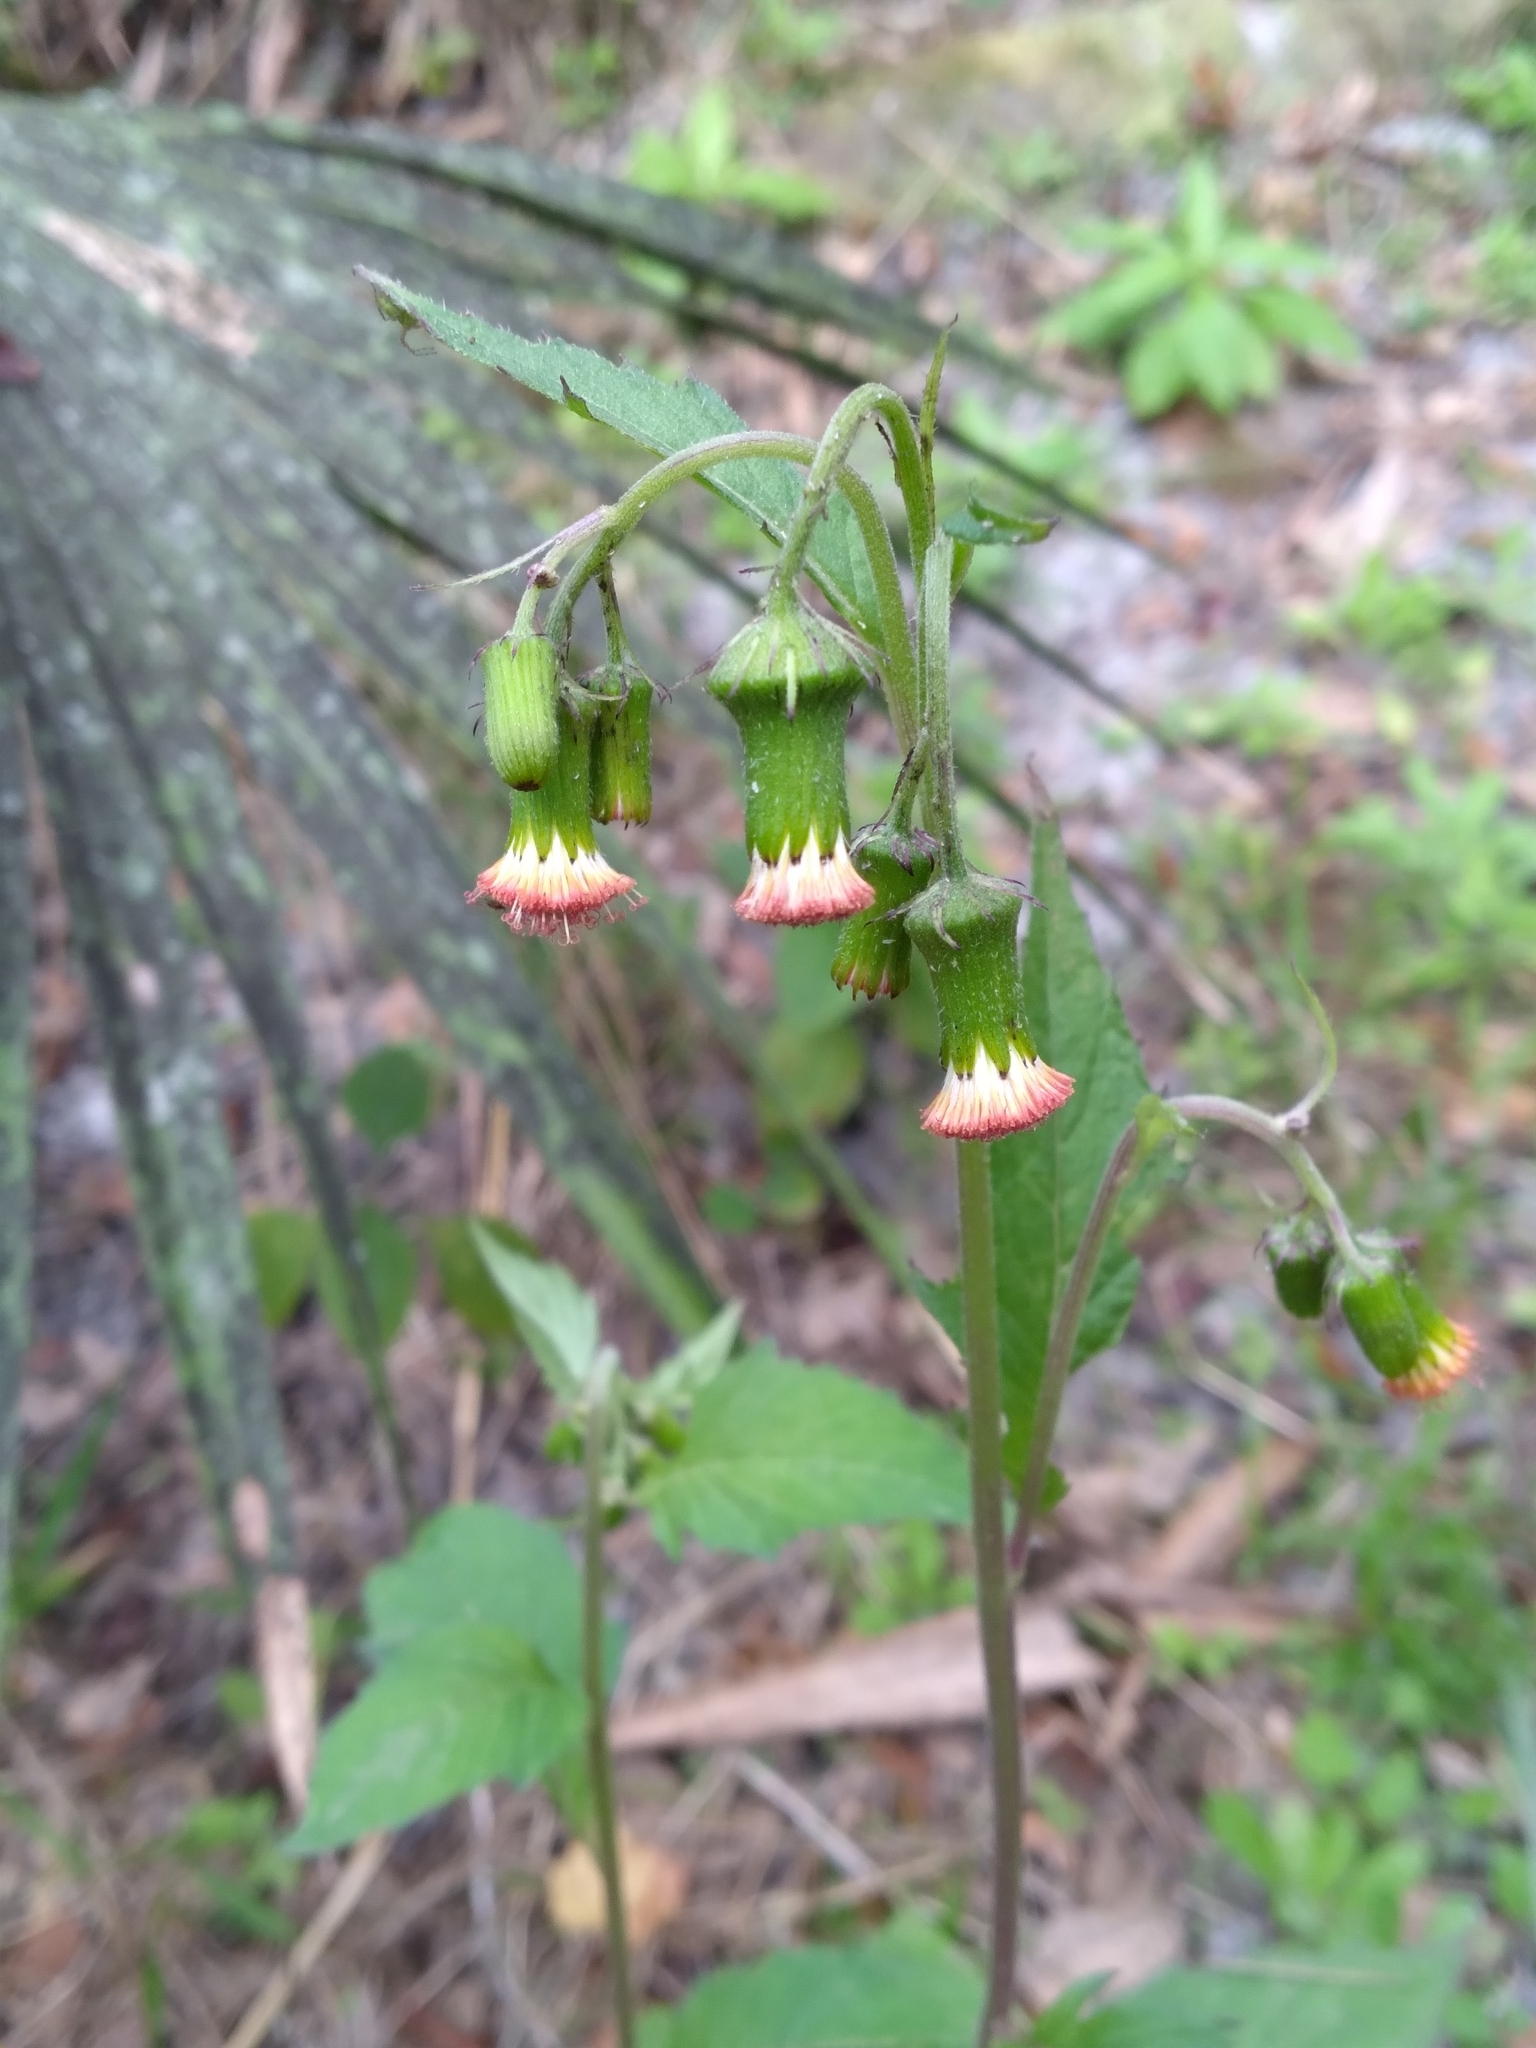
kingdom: Plantae
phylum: Tracheophyta
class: Magnoliopsida
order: Asterales
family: Asteraceae
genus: Crassocephalum
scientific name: Crassocephalum crepidioides
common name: Redflower ragleaf
